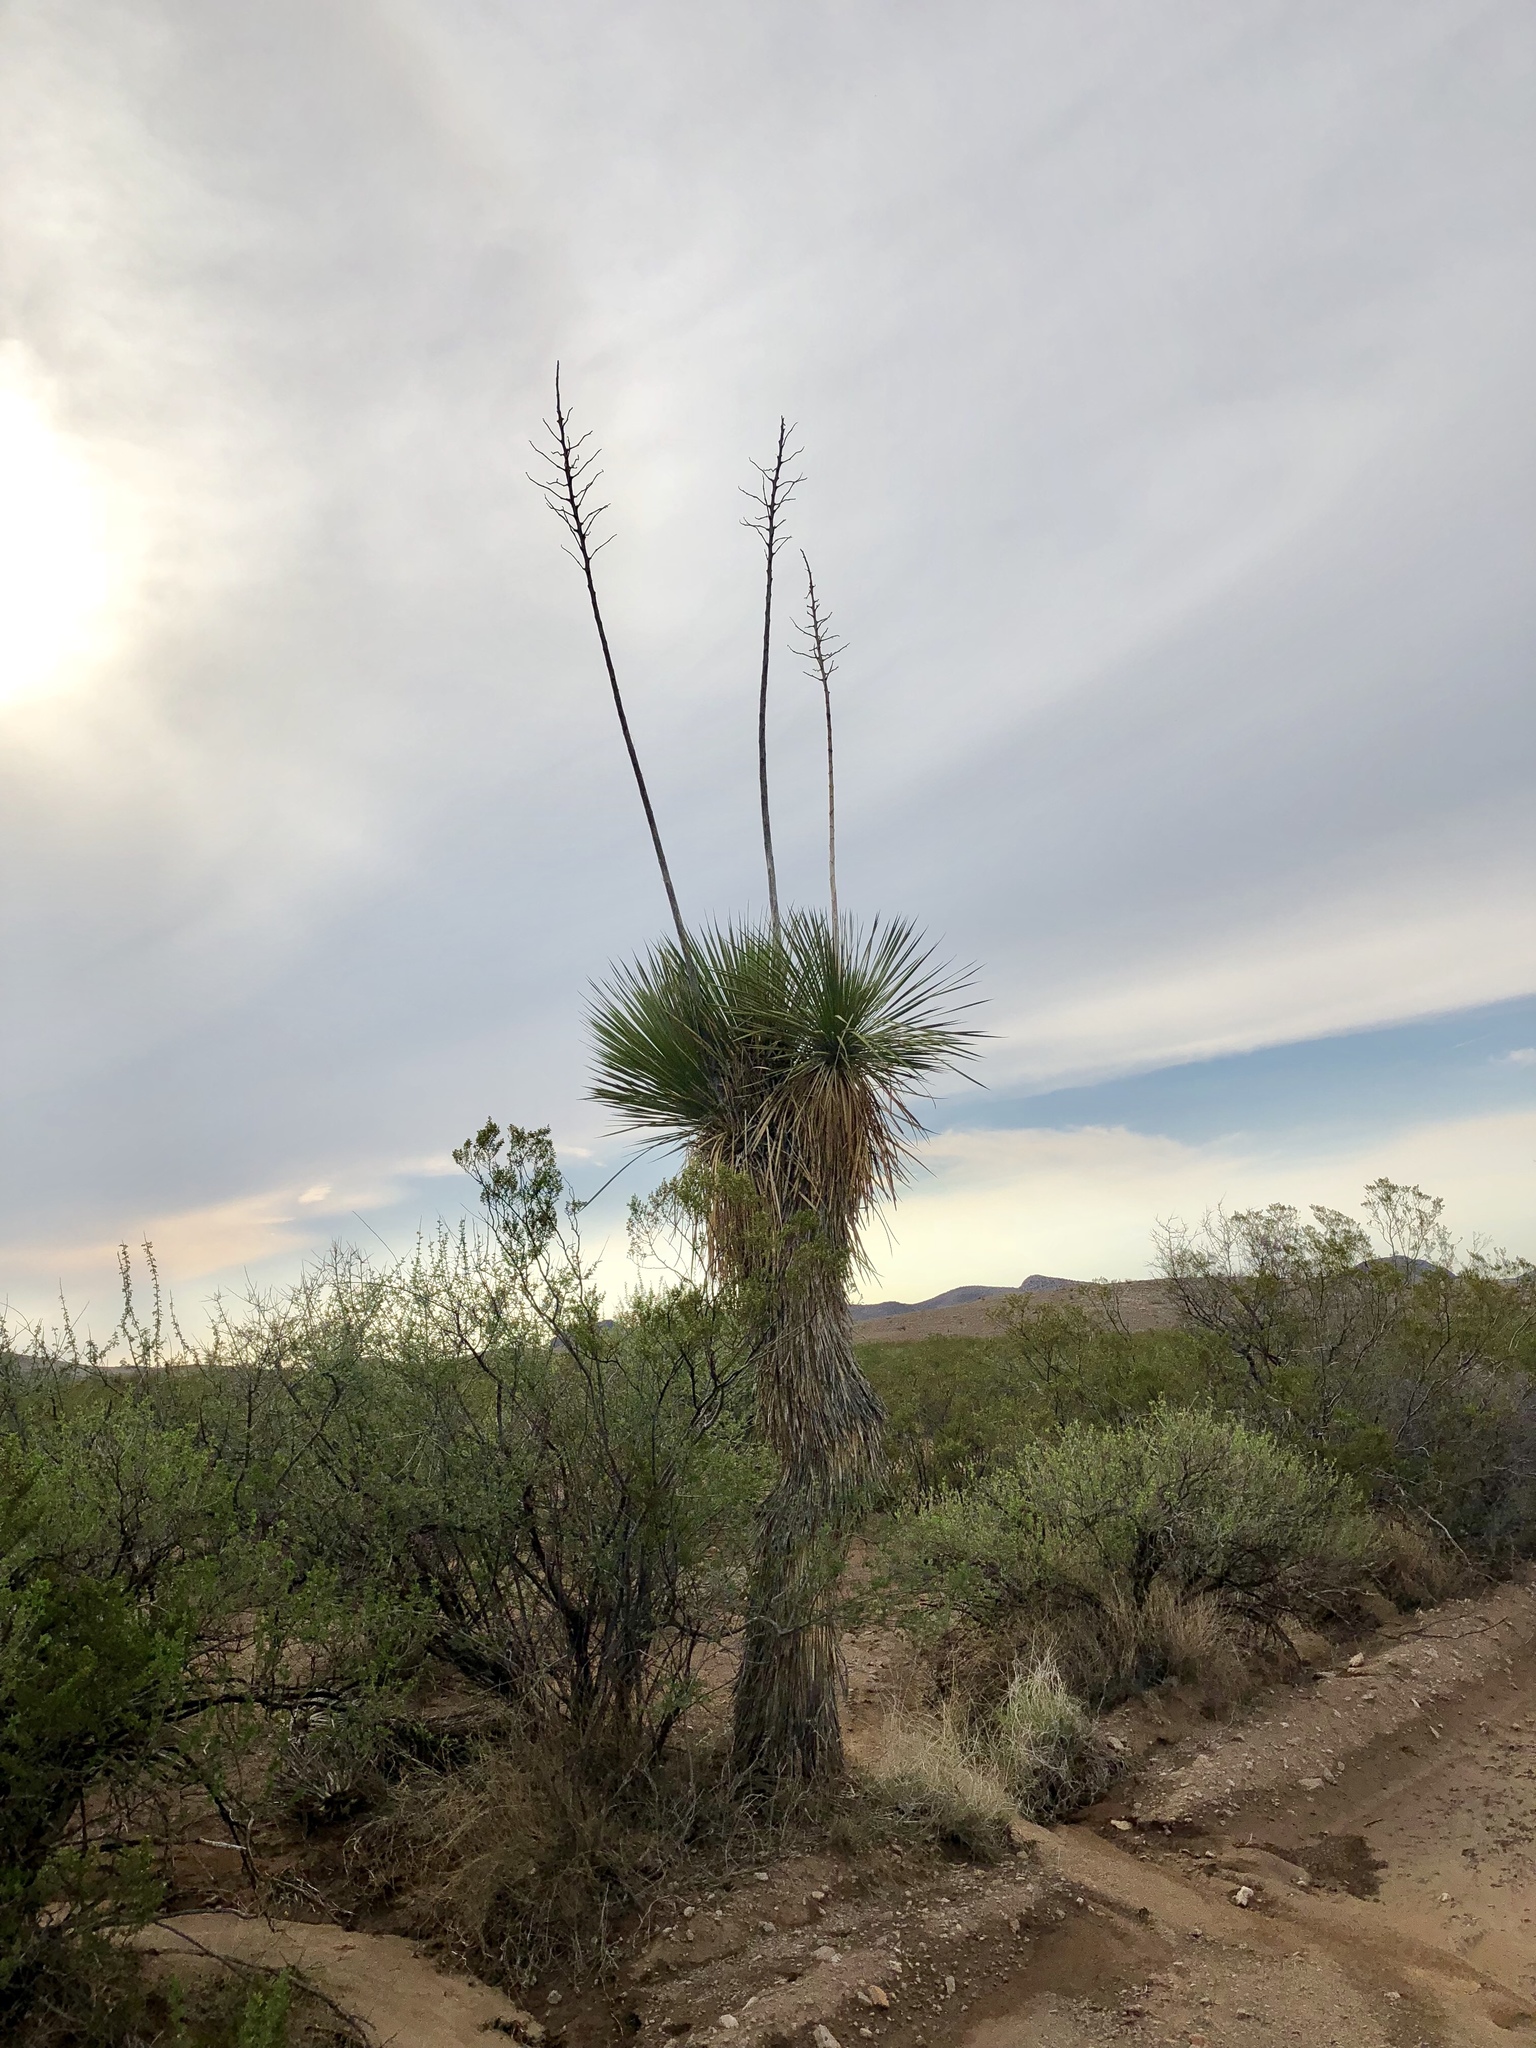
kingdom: Plantae
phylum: Tracheophyta
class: Liliopsida
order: Asparagales
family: Asparagaceae
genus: Yucca
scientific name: Yucca elata
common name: Palmella
